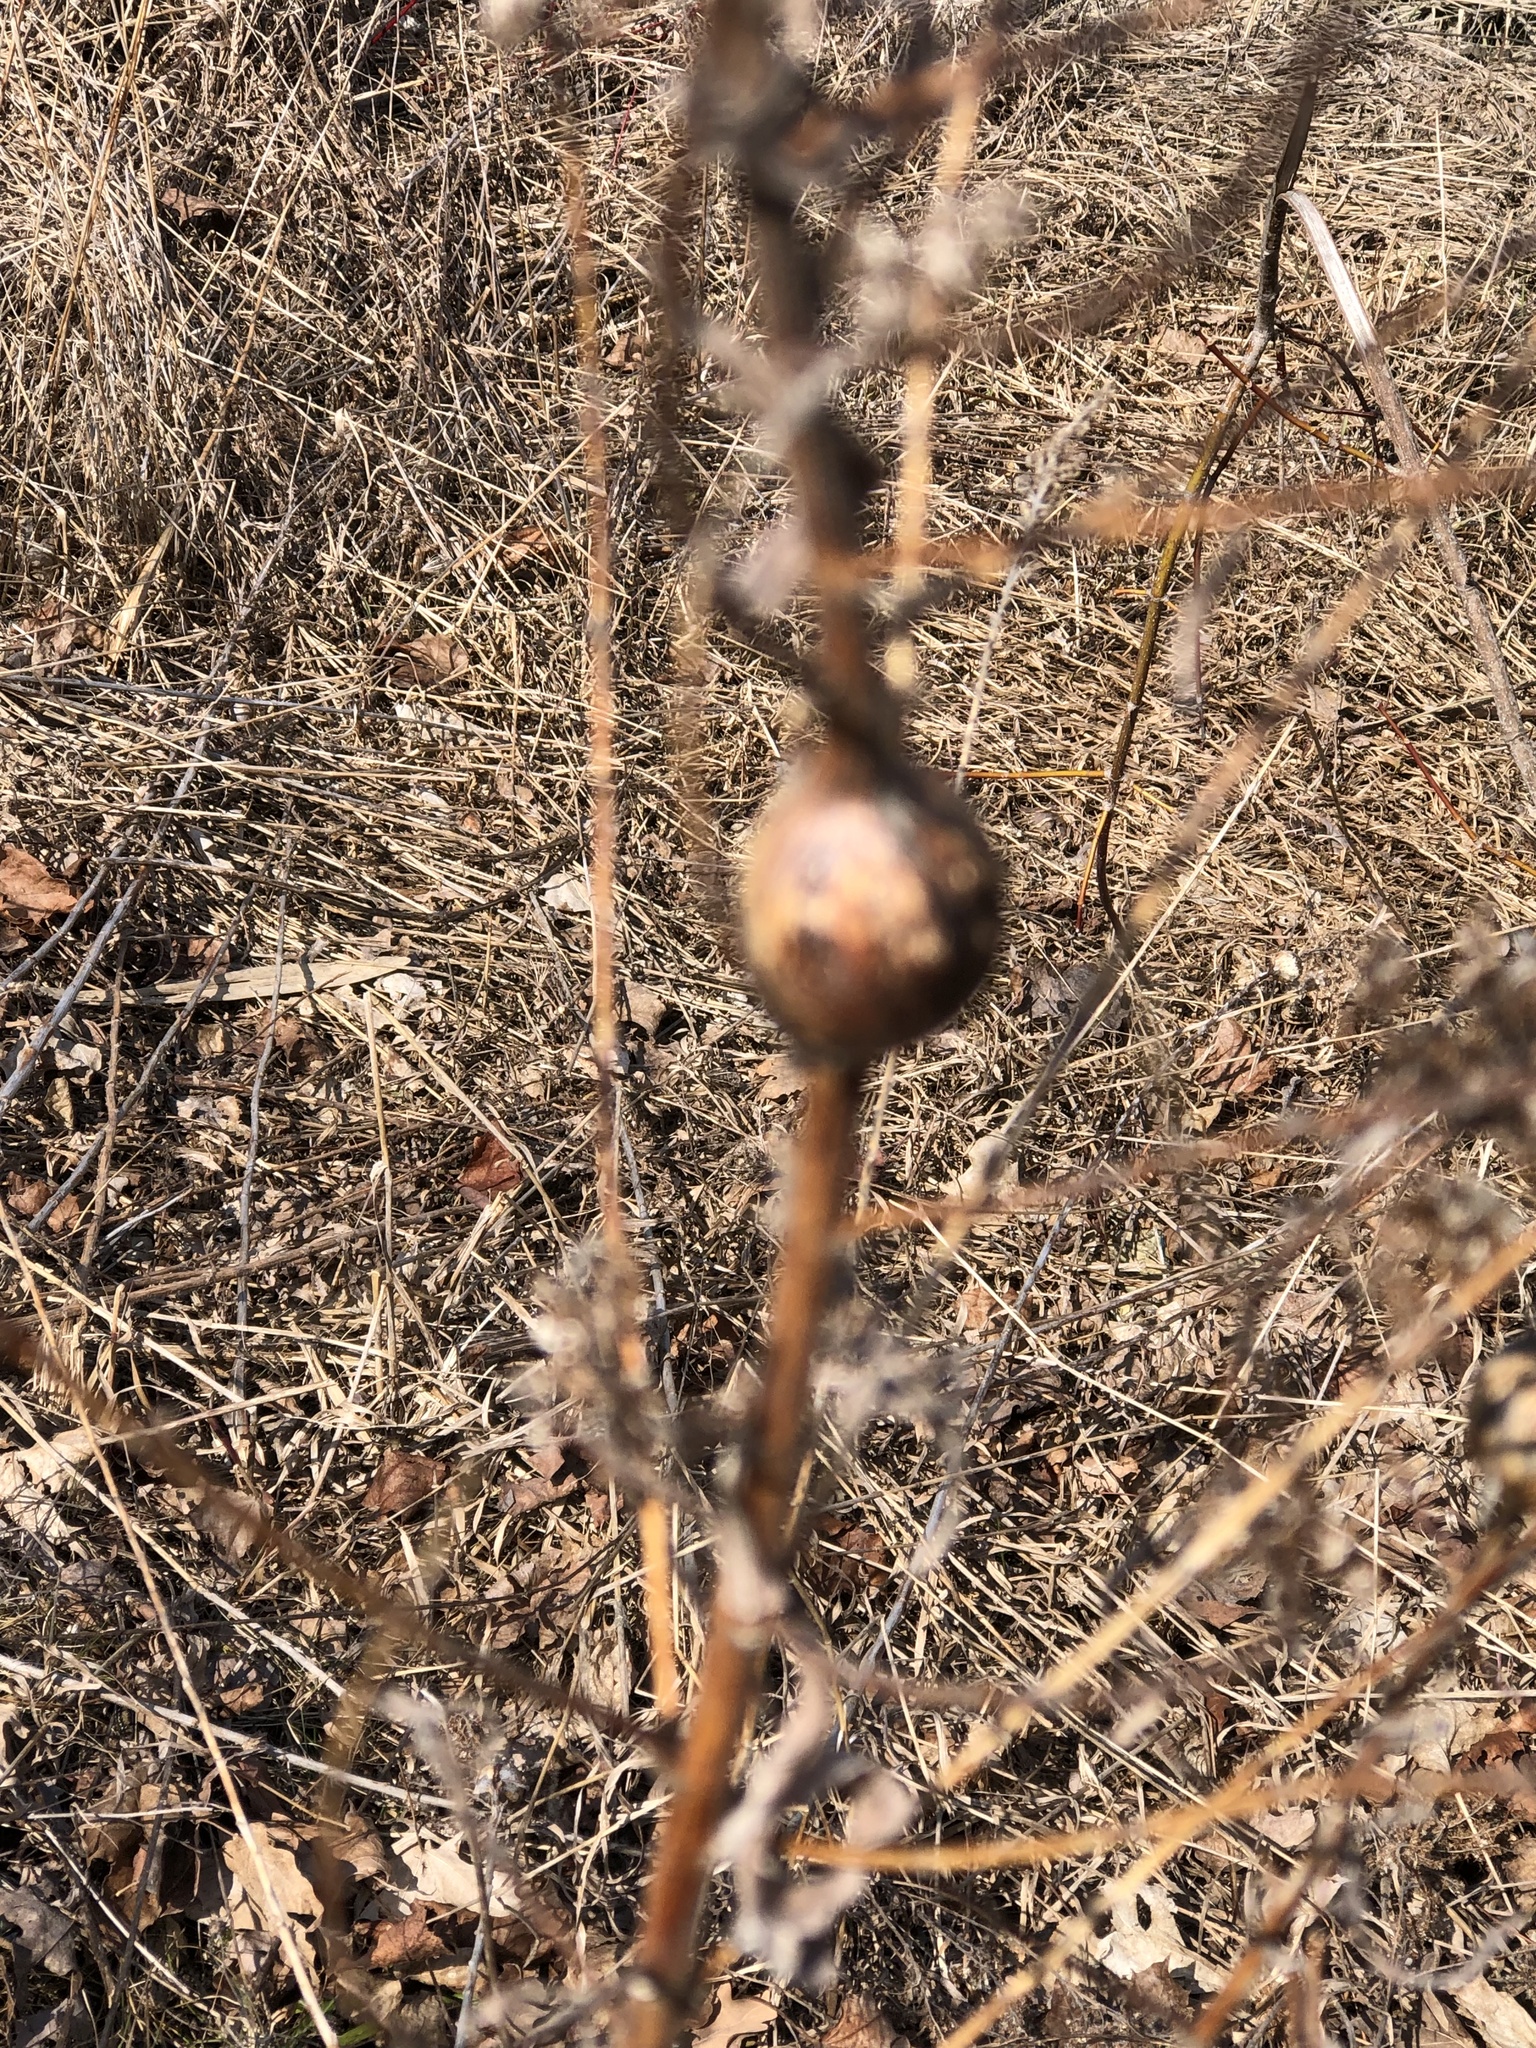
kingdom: Animalia
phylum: Arthropoda
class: Insecta
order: Diptera
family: Tephritidae
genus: Eurosta
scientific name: Eurosta solidaginis
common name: Goldenrod gall fly
